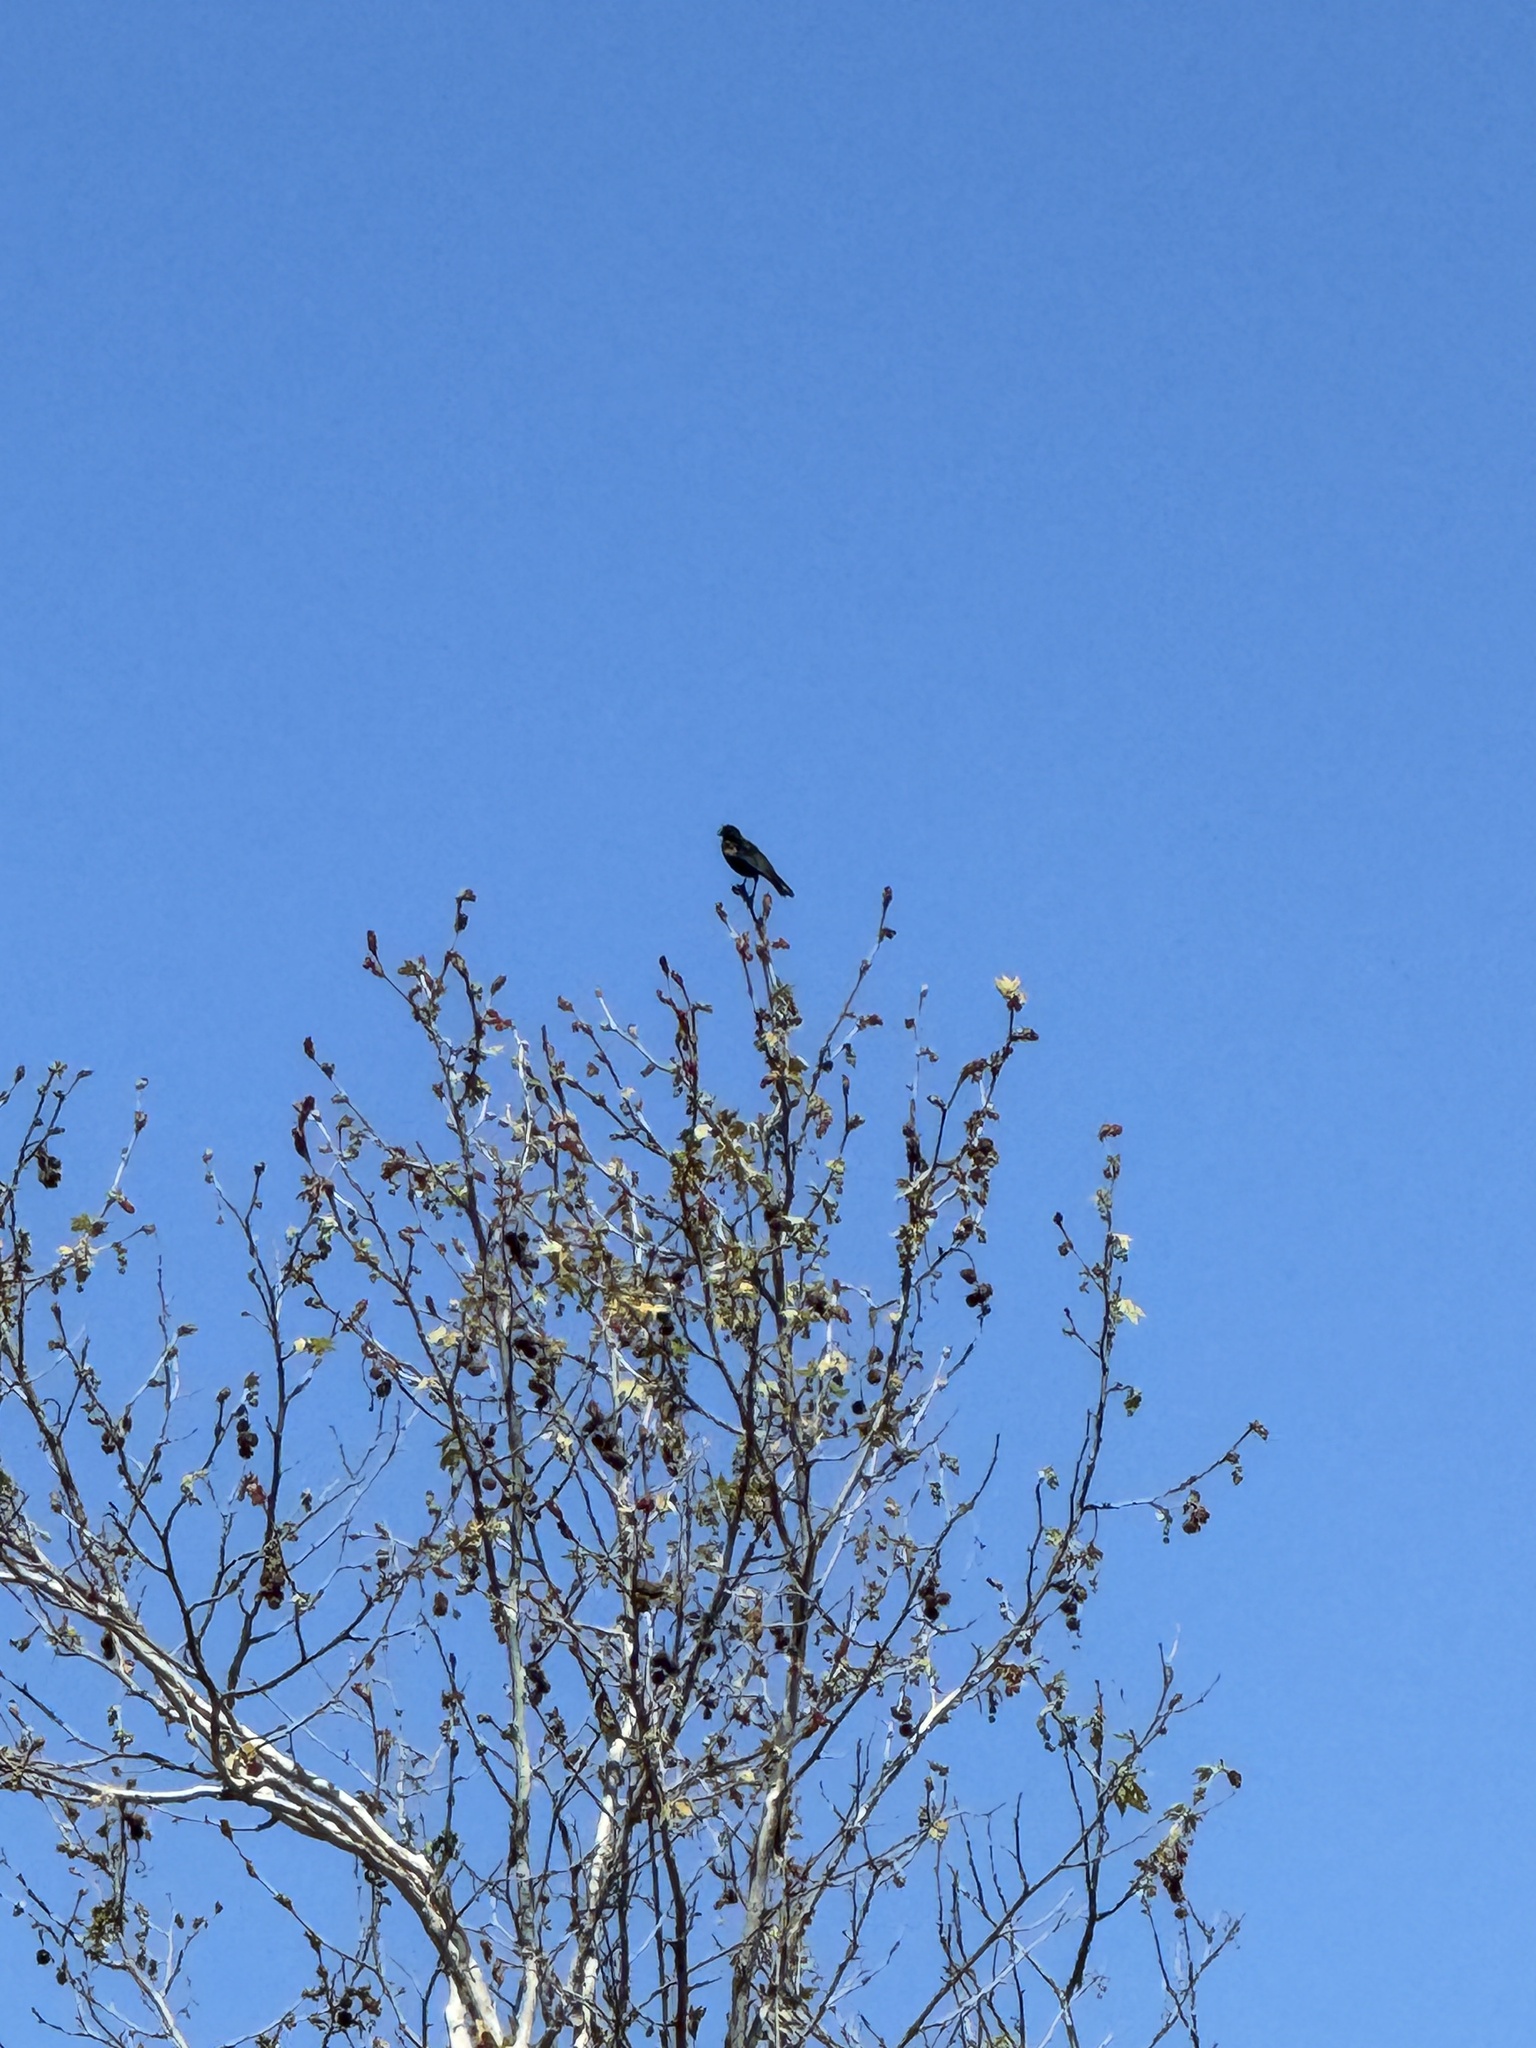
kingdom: Animalia
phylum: Chordata
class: Aves
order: Passeriformes
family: Icteridae
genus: Agelaius
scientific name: Agelaius phoeniceus
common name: Red-winged blackbird
